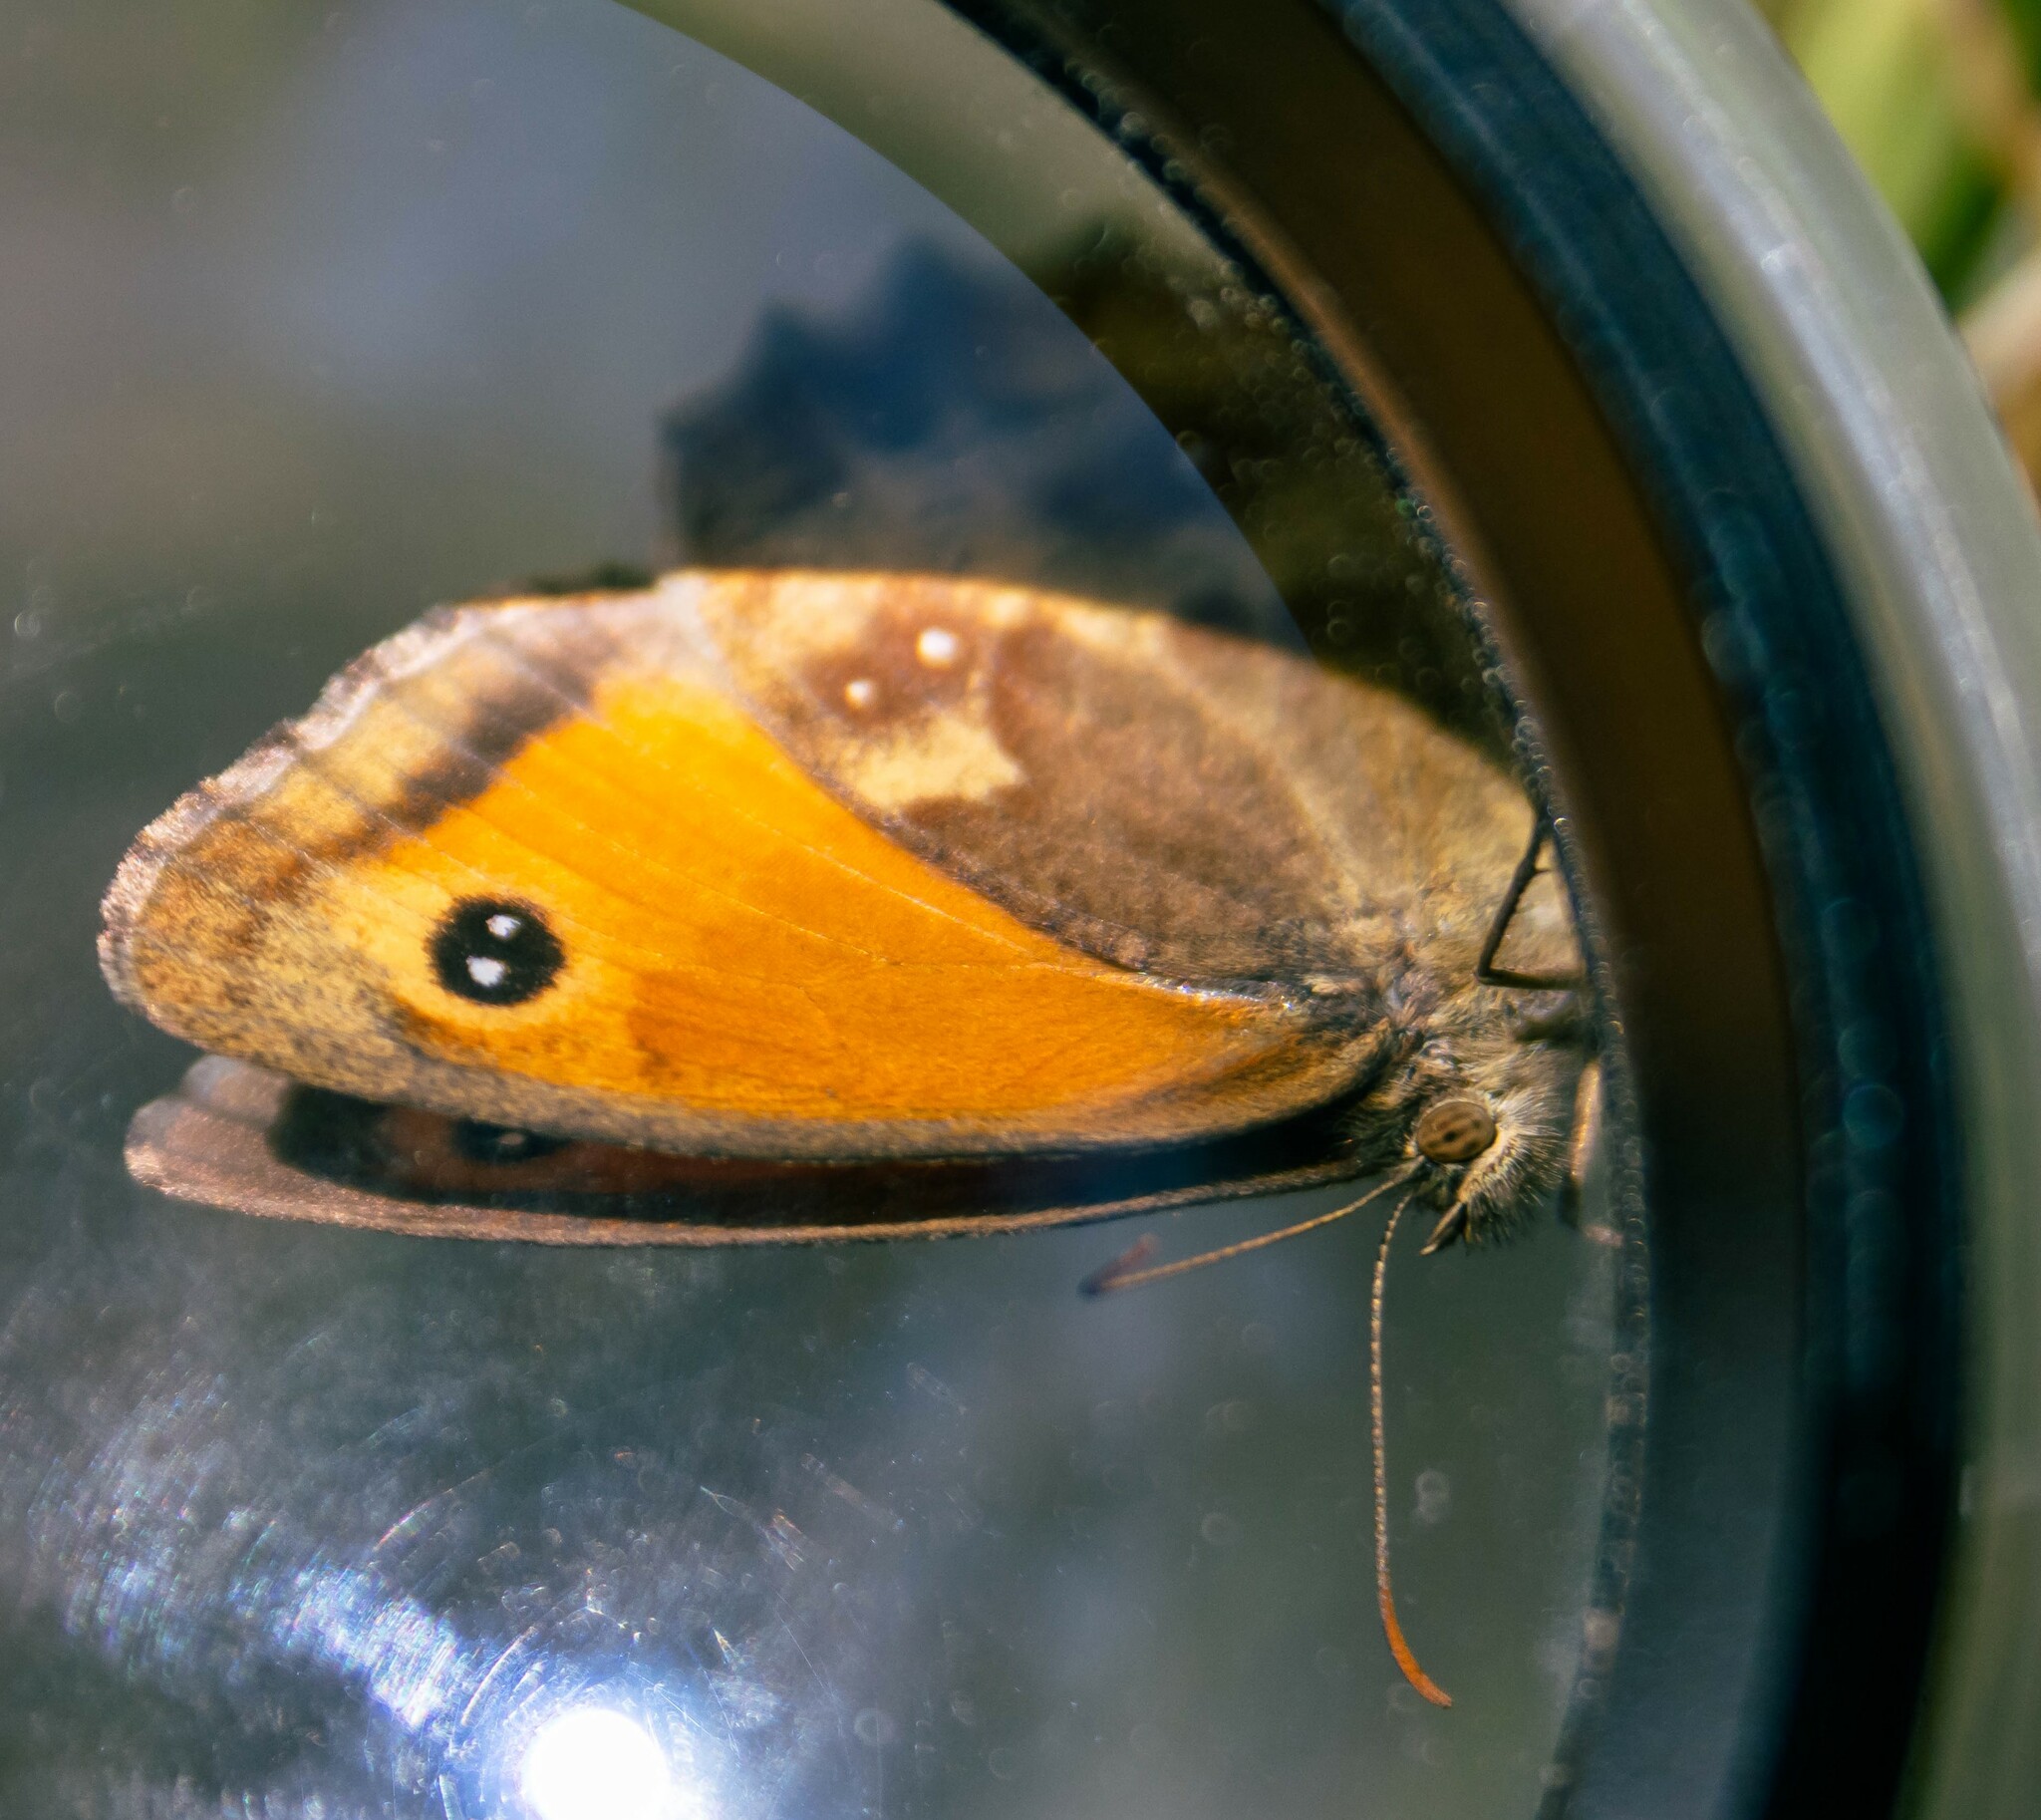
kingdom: Animalia
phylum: Arthropoda
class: Insecta
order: Lepidoptera
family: Nymphalidae
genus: Pyronia
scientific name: Pyronia tithonus
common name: Gatekeeper
